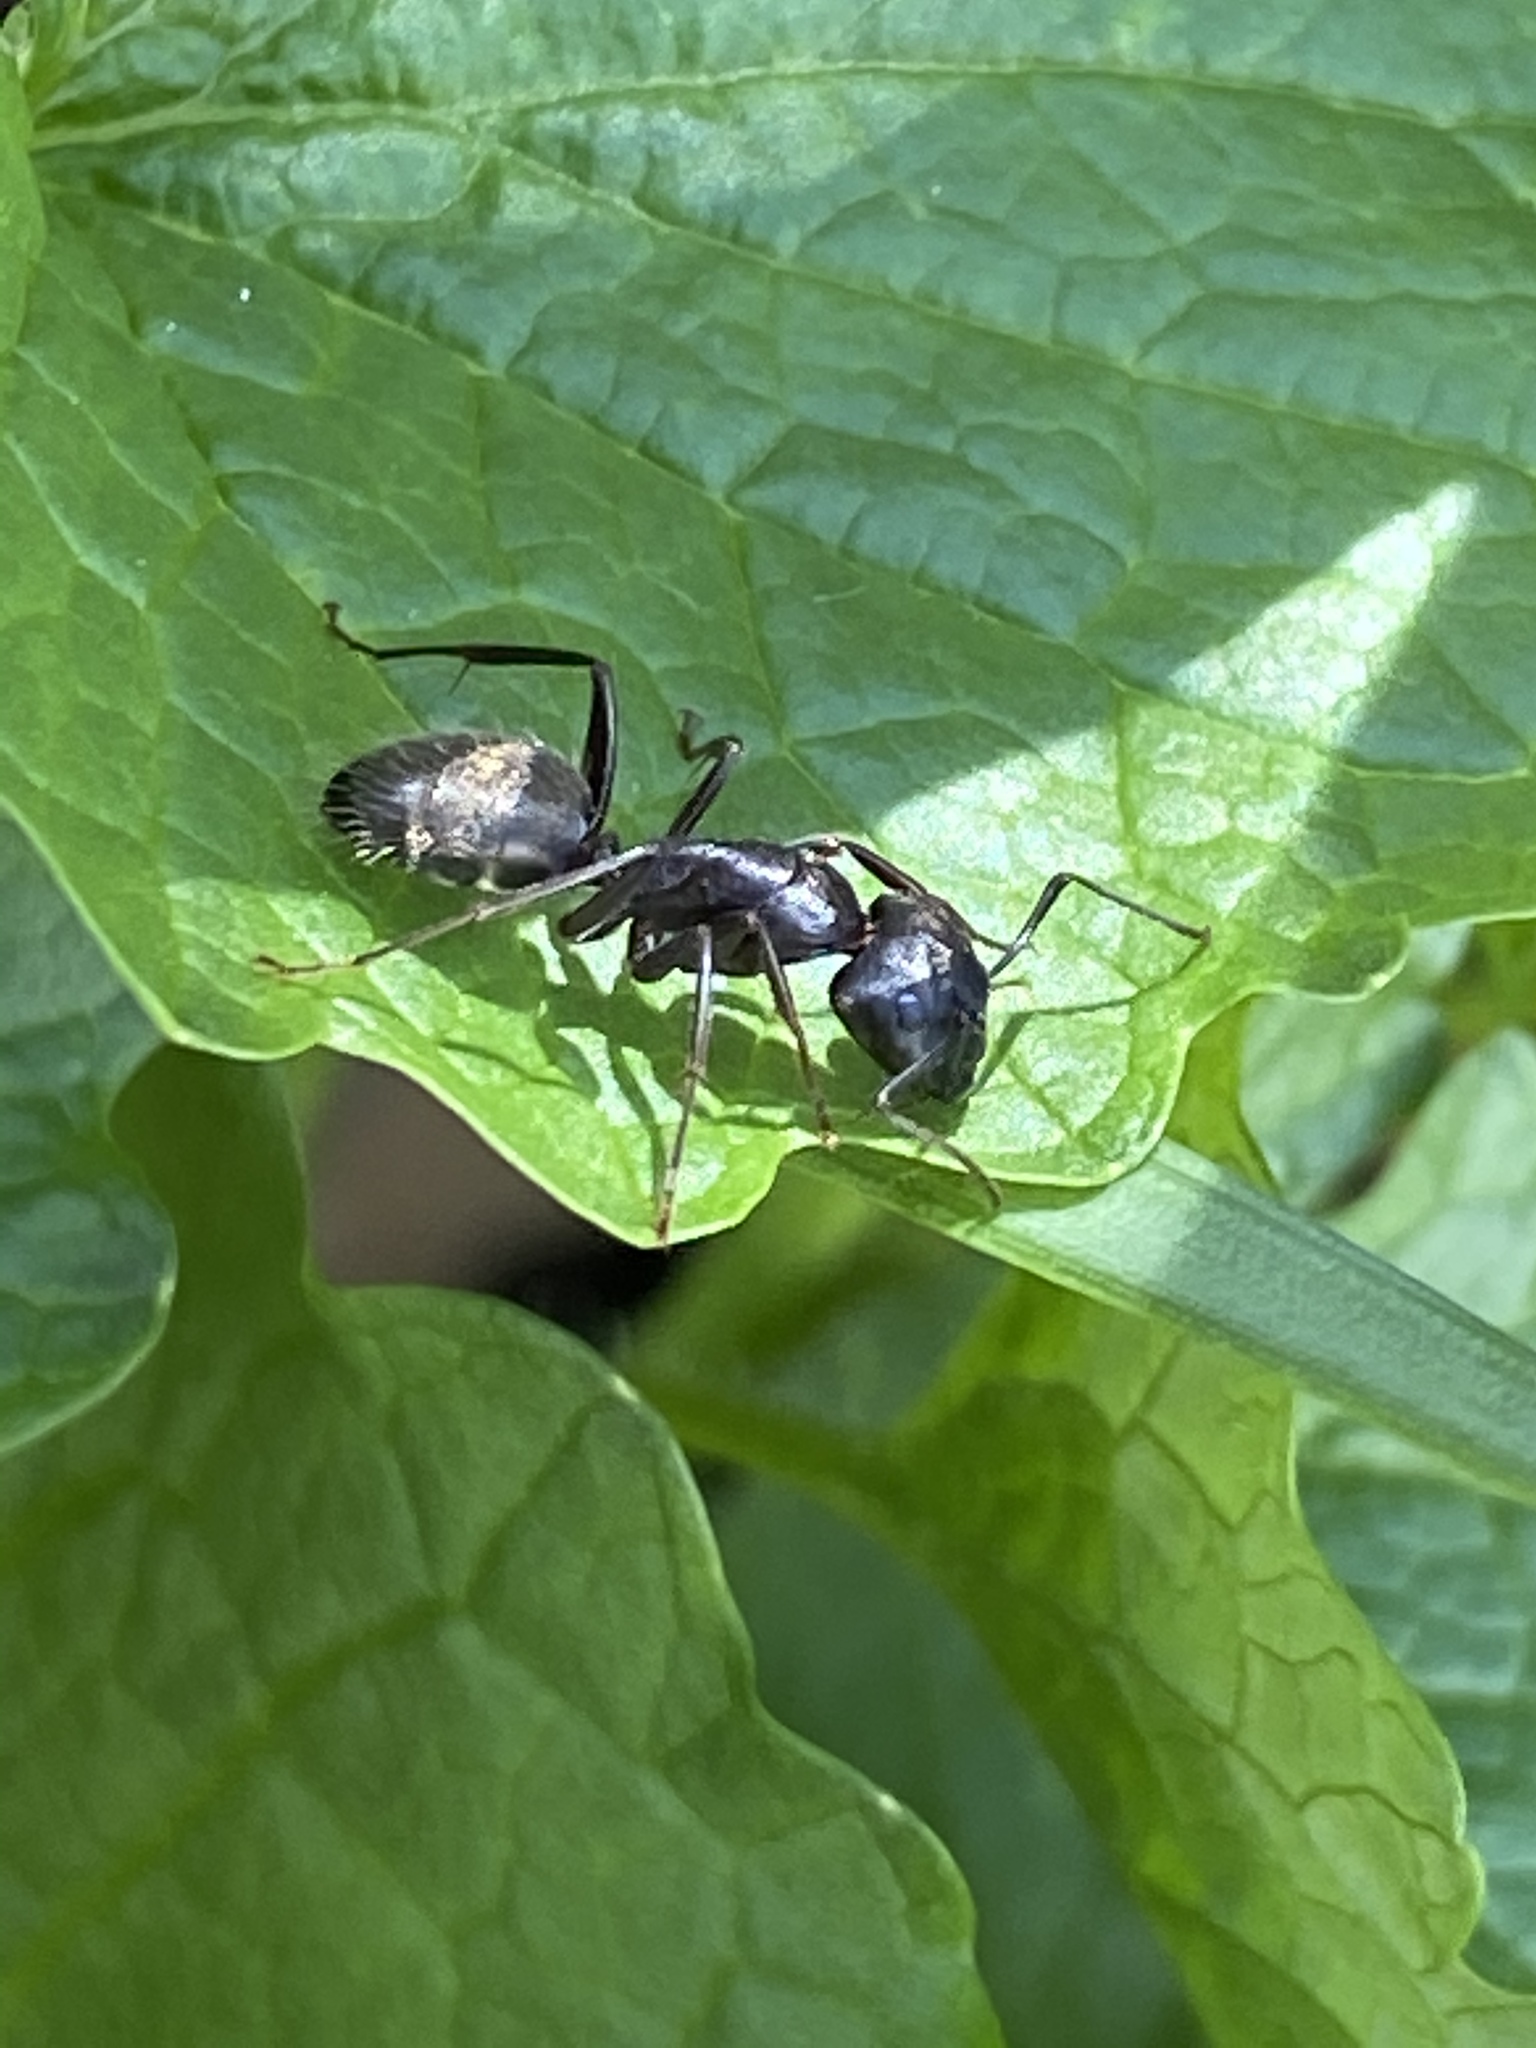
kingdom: Animalia
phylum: Arthropoda
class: Insecta
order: Hymenoptera
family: Formicidae
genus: Camponotus
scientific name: Camponotus pennsylvanicus
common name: Black carpenter ant
